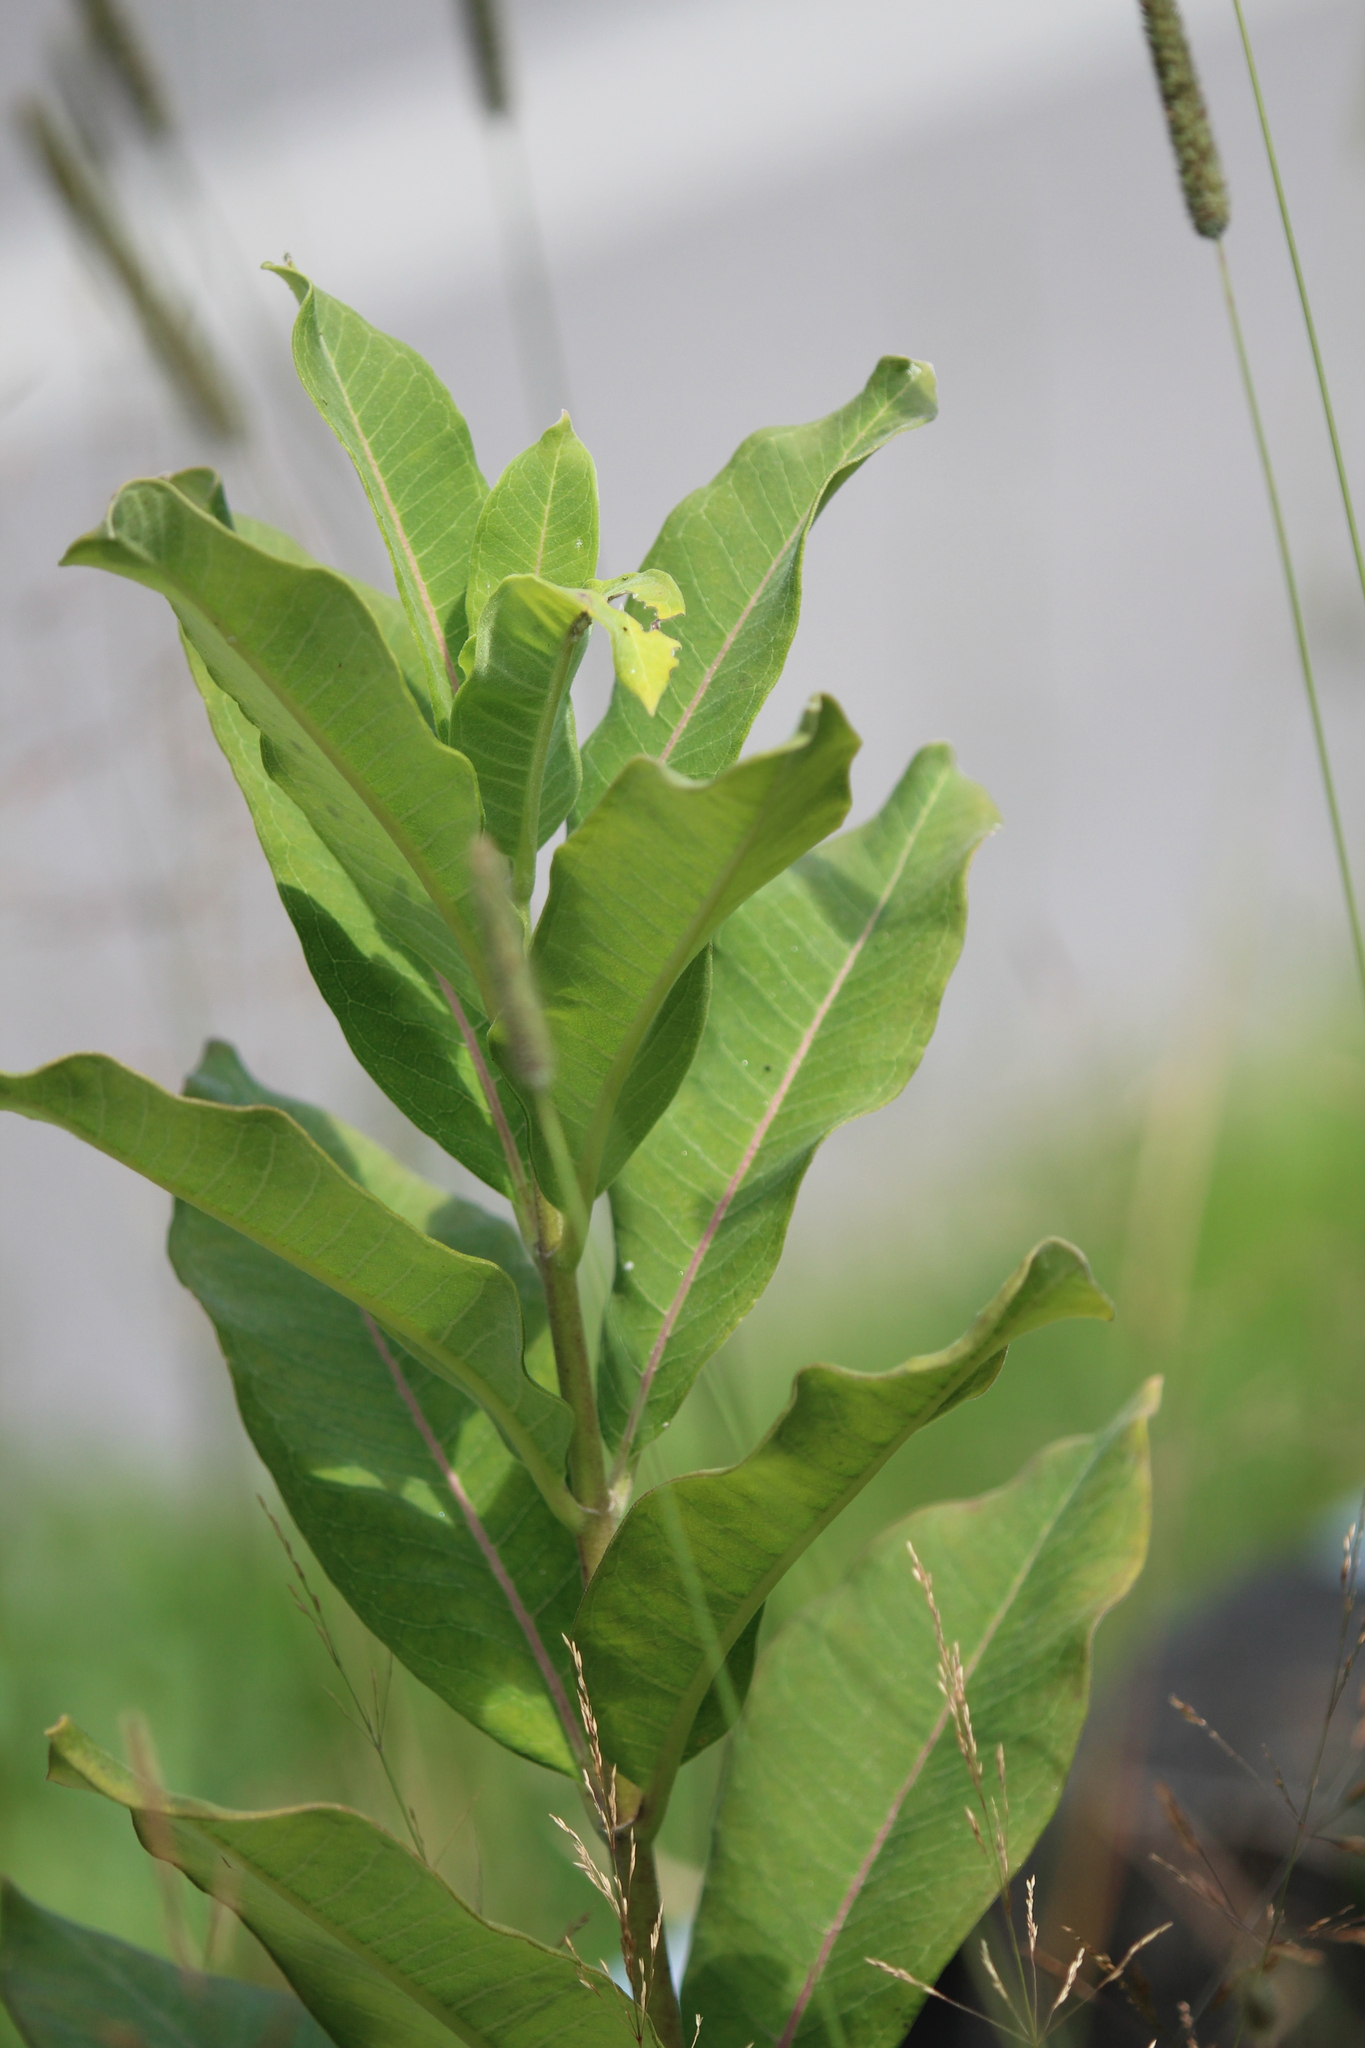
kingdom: Plantae
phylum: Tracheophyta
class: Magnoliopsida
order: Gentianales
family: Apocynaceae
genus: Asclepias
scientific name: Asclepias syriaca
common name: Common milkweed
